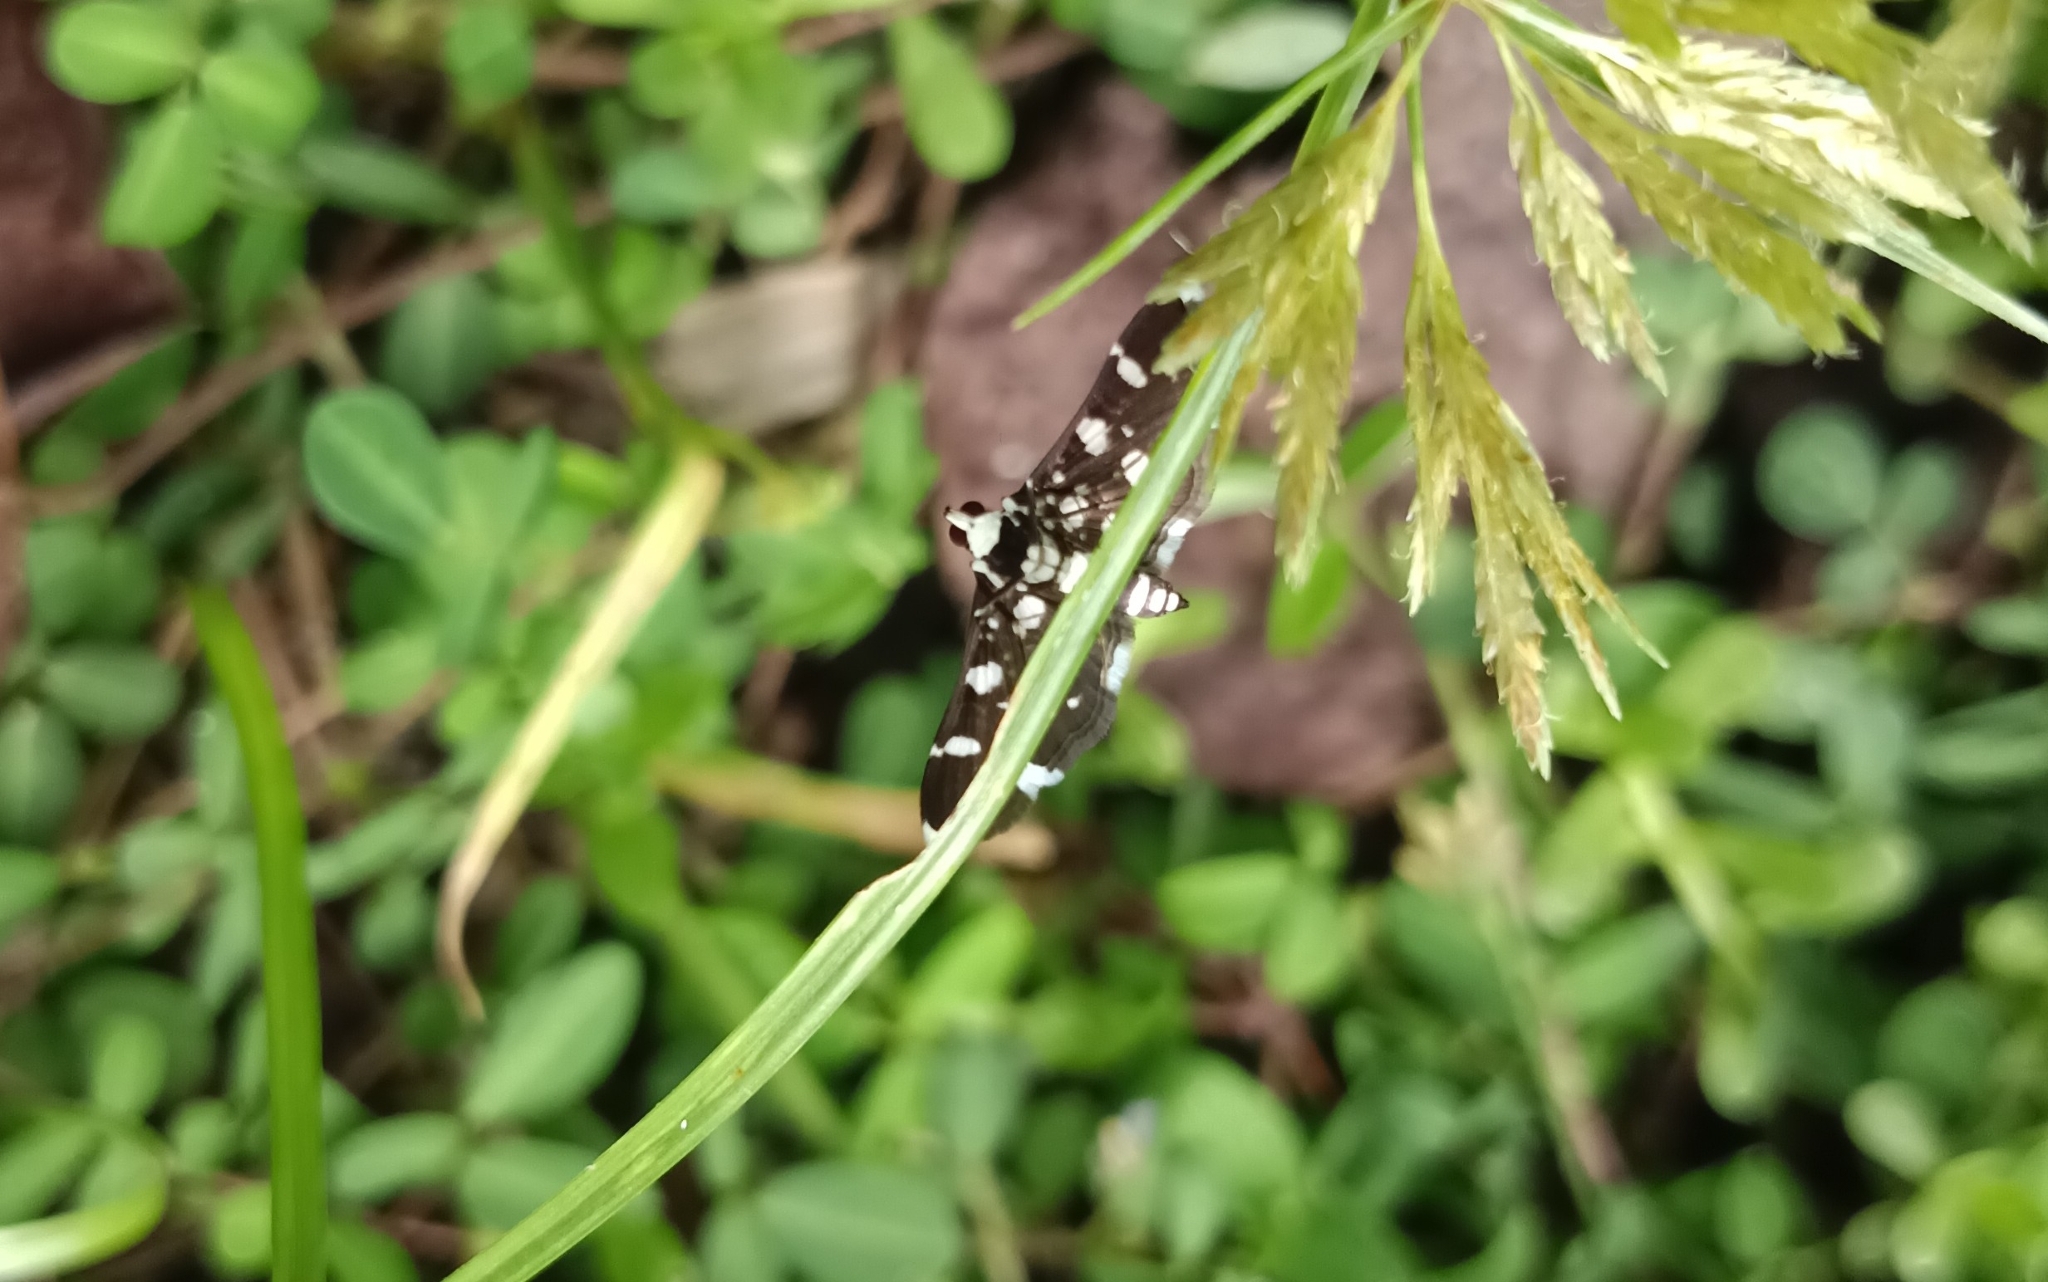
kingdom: Animalia
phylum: Arthropoda
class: Insecta
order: Lepidoptera
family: Crambidae
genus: Bocchoris
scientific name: Bocchoris inspersalis
